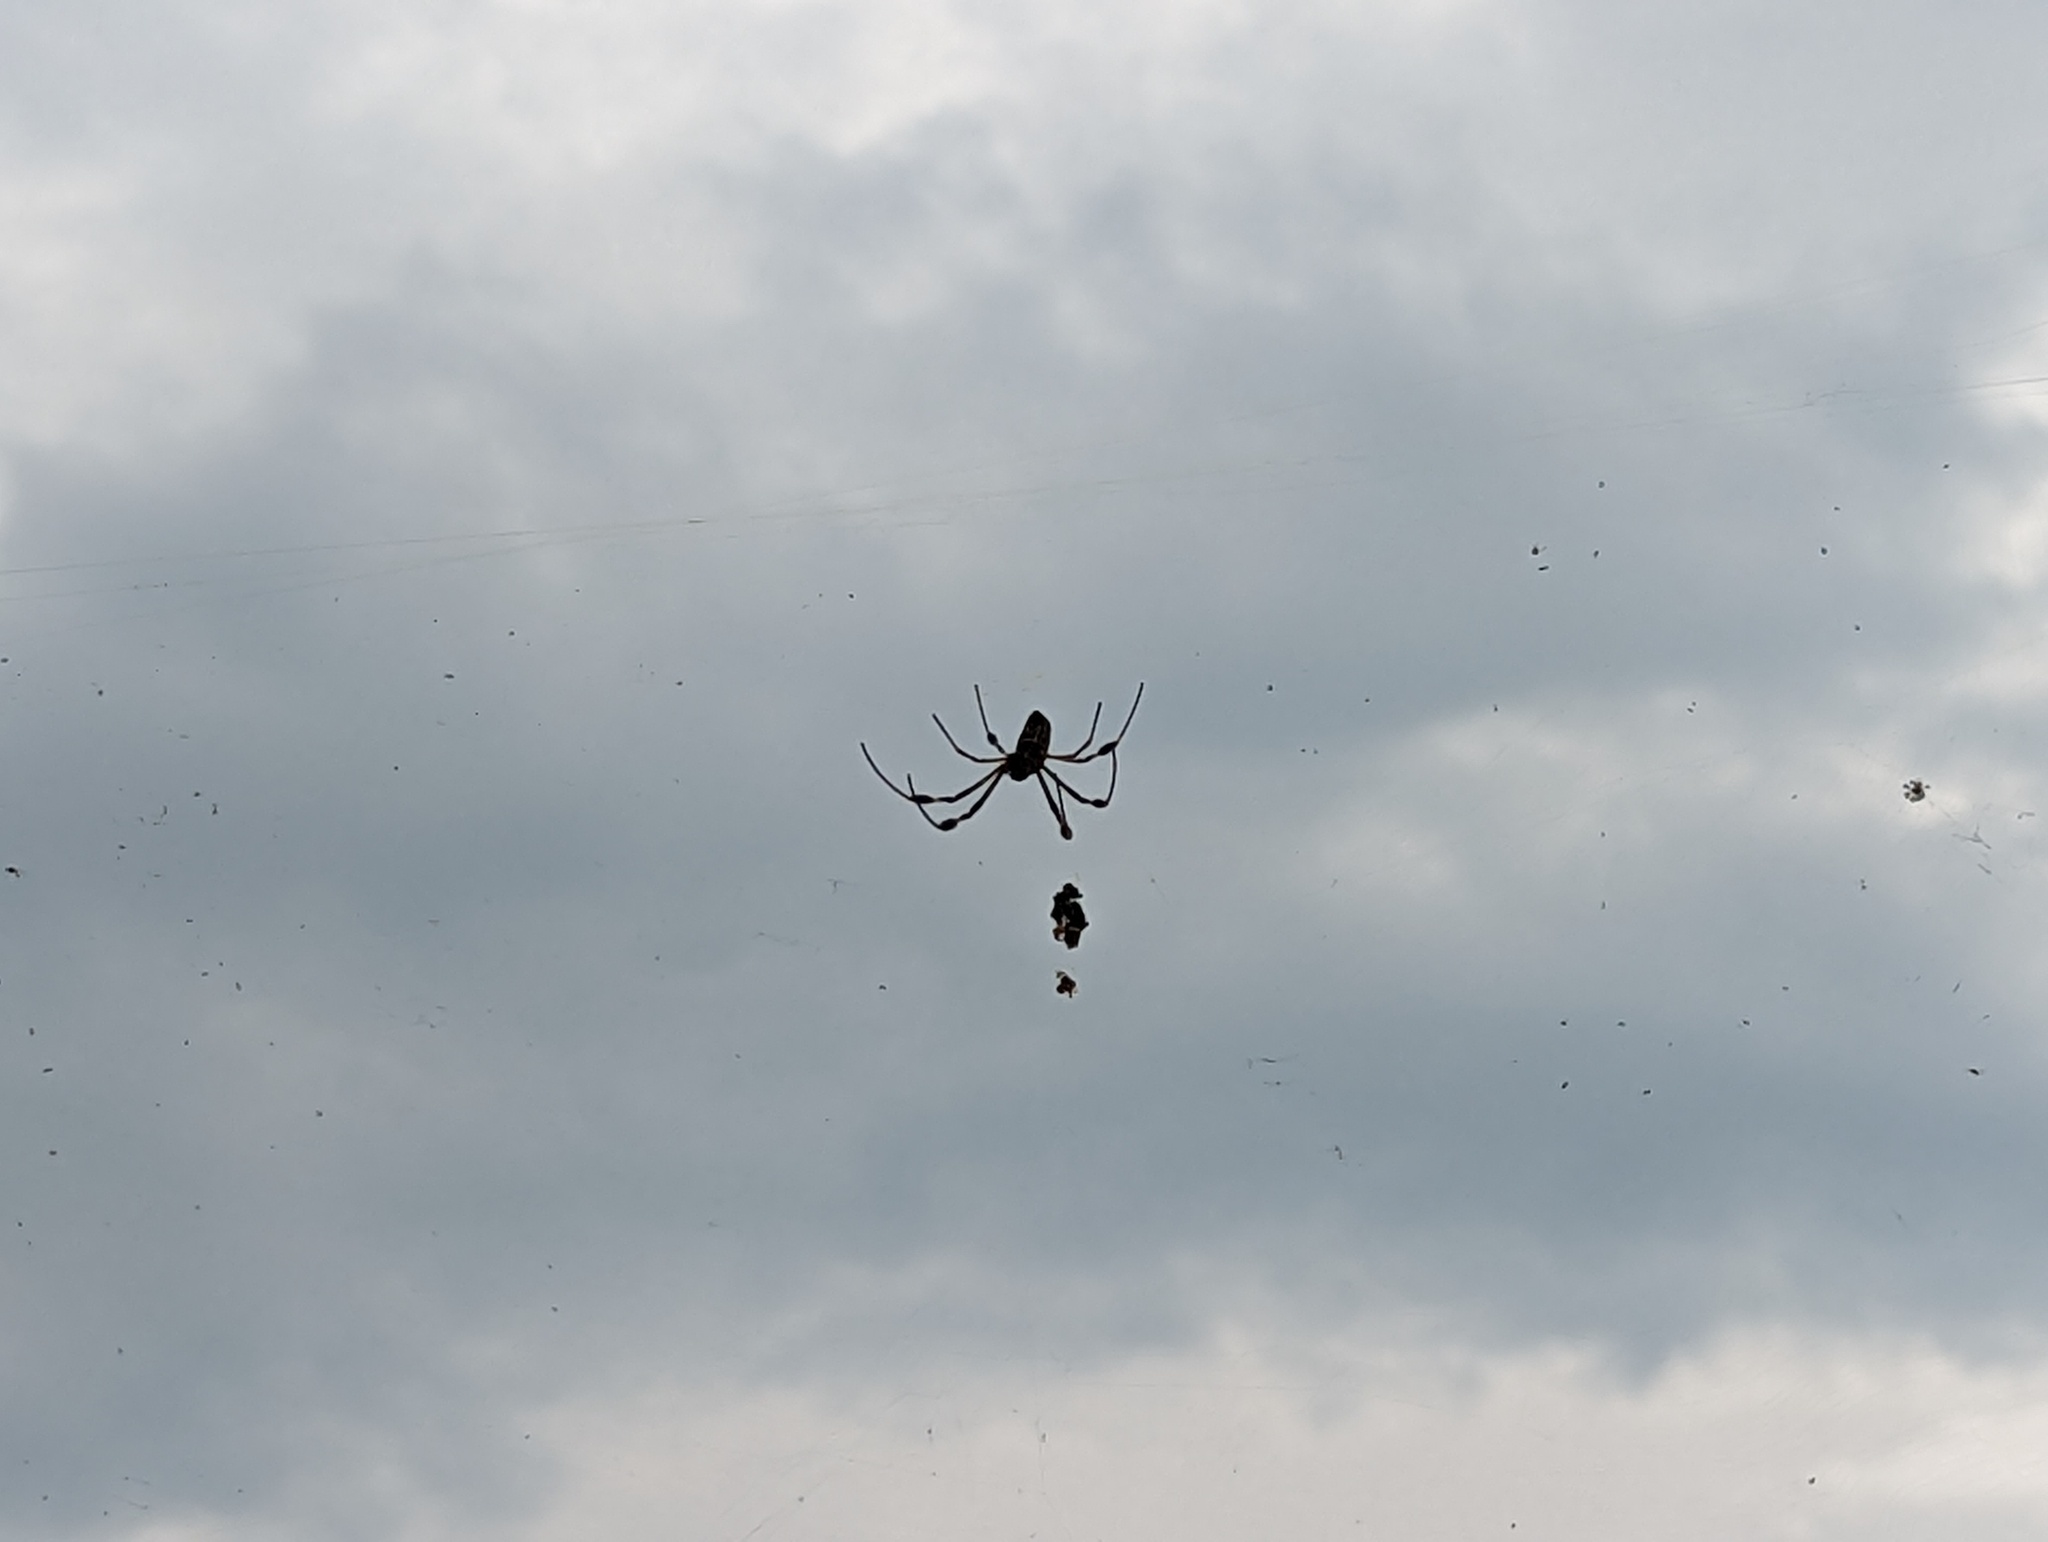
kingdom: Animalia
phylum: Arthropoda
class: Arachnida
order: Araneae
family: Araneidae
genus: Trichonephila
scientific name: Trichonephila clavipes
